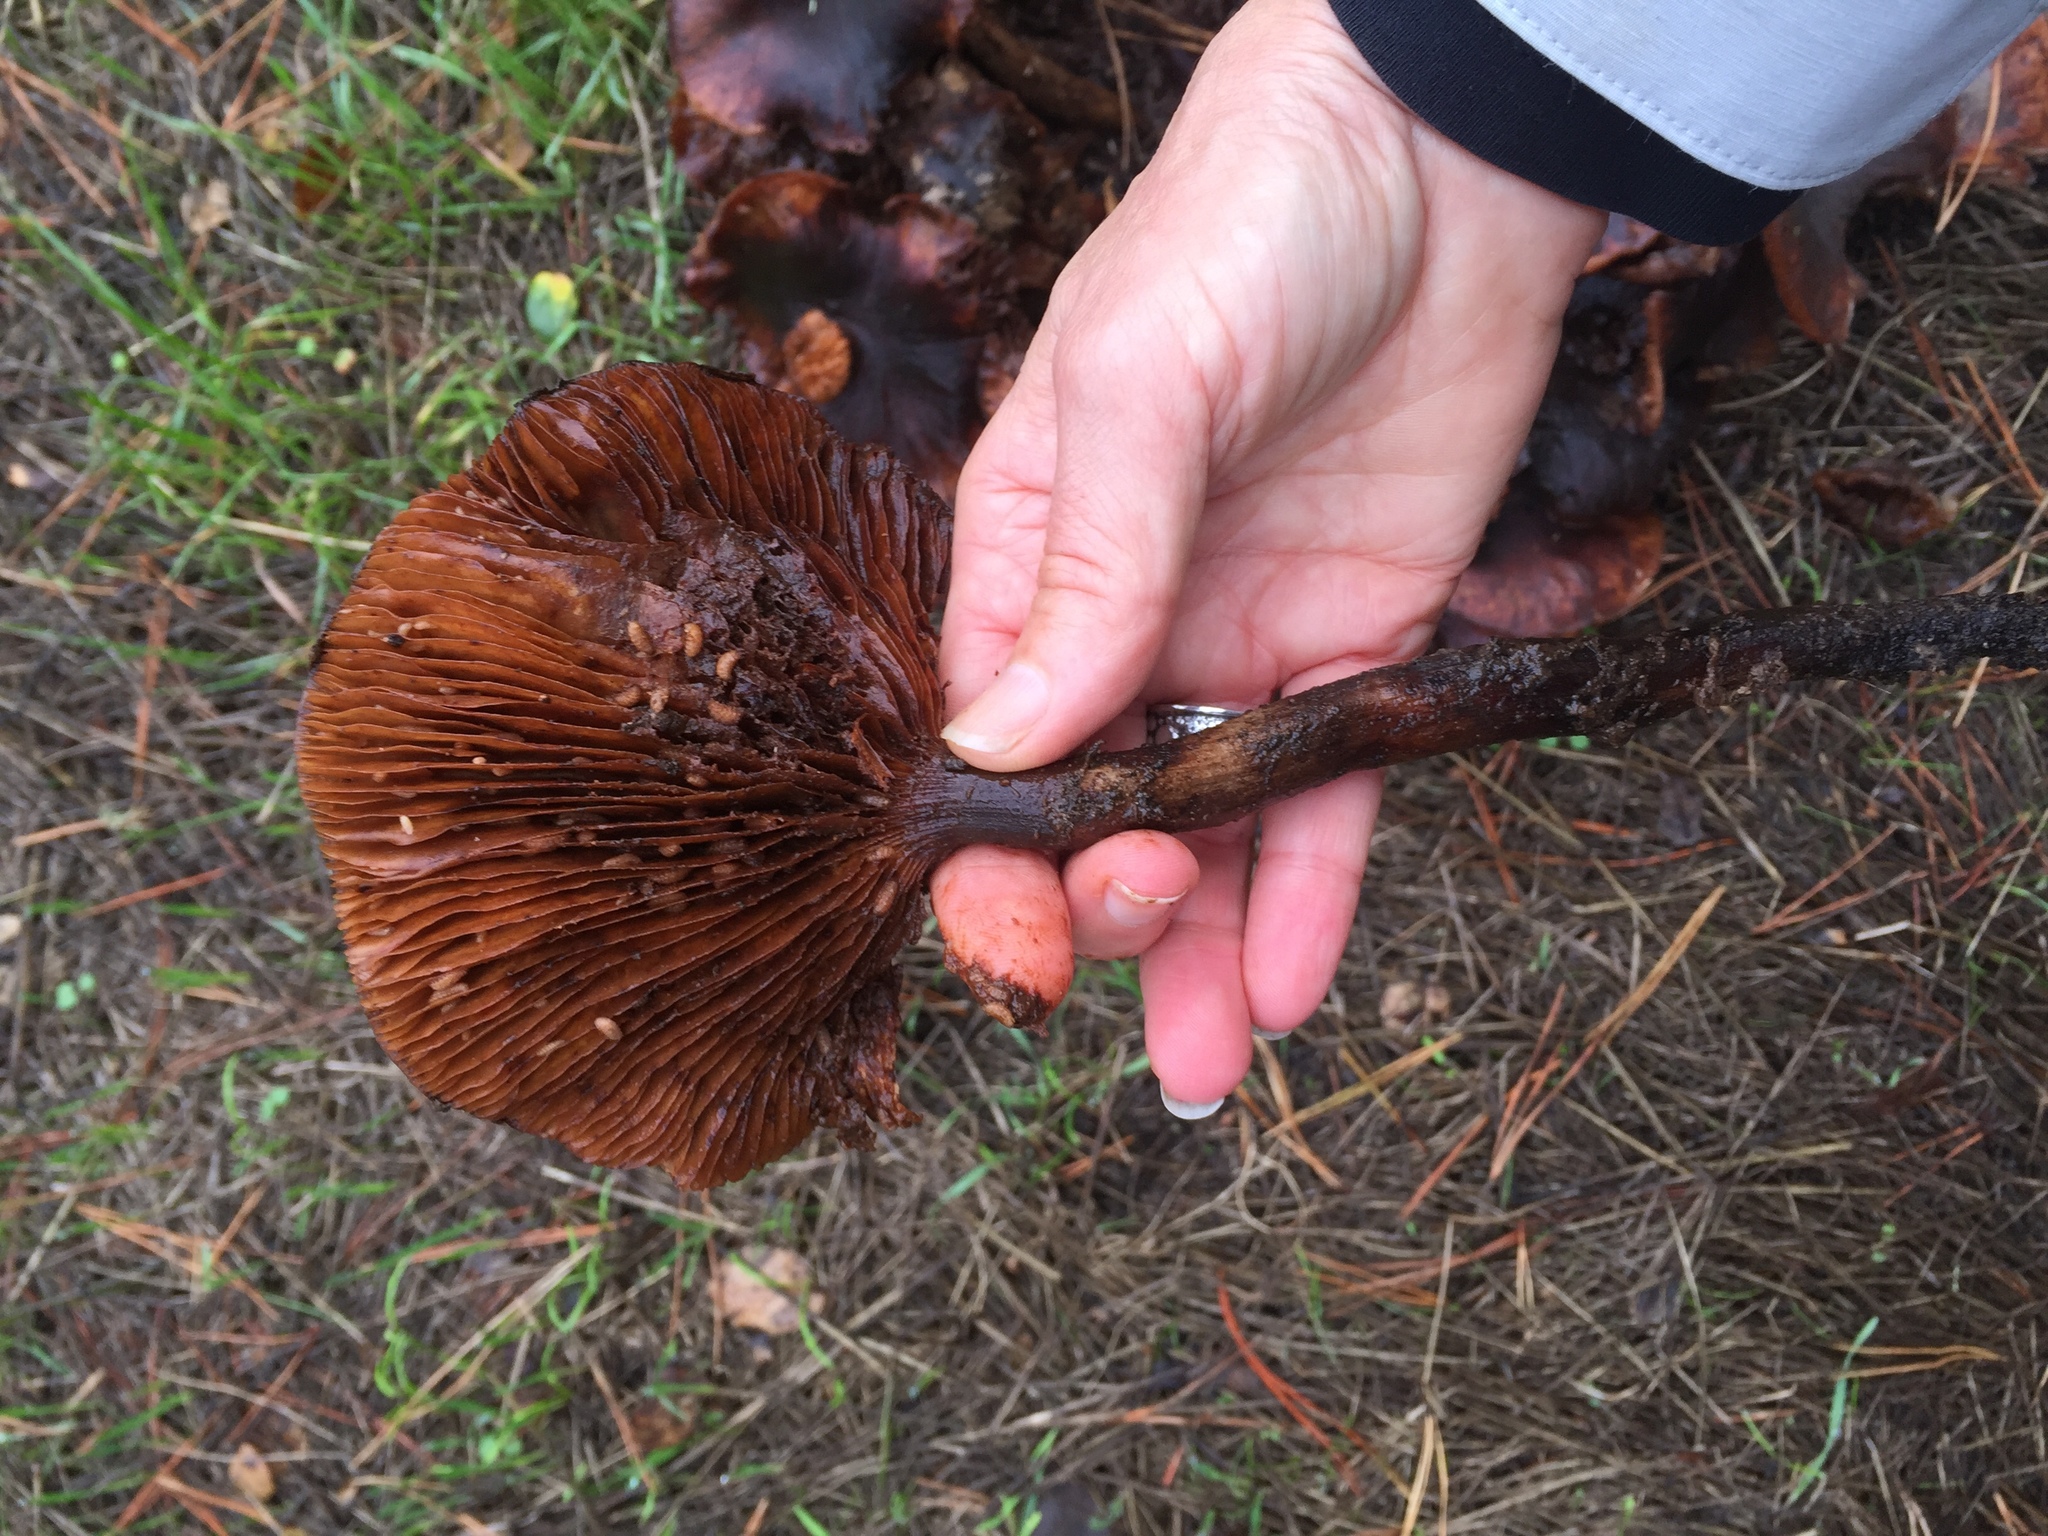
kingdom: Fungi
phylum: Basidiomycota
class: Agaricomycetes
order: Agaricales
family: Physalacriaceae
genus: Armillaria
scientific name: Armillaria mellea
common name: Honey fungus
